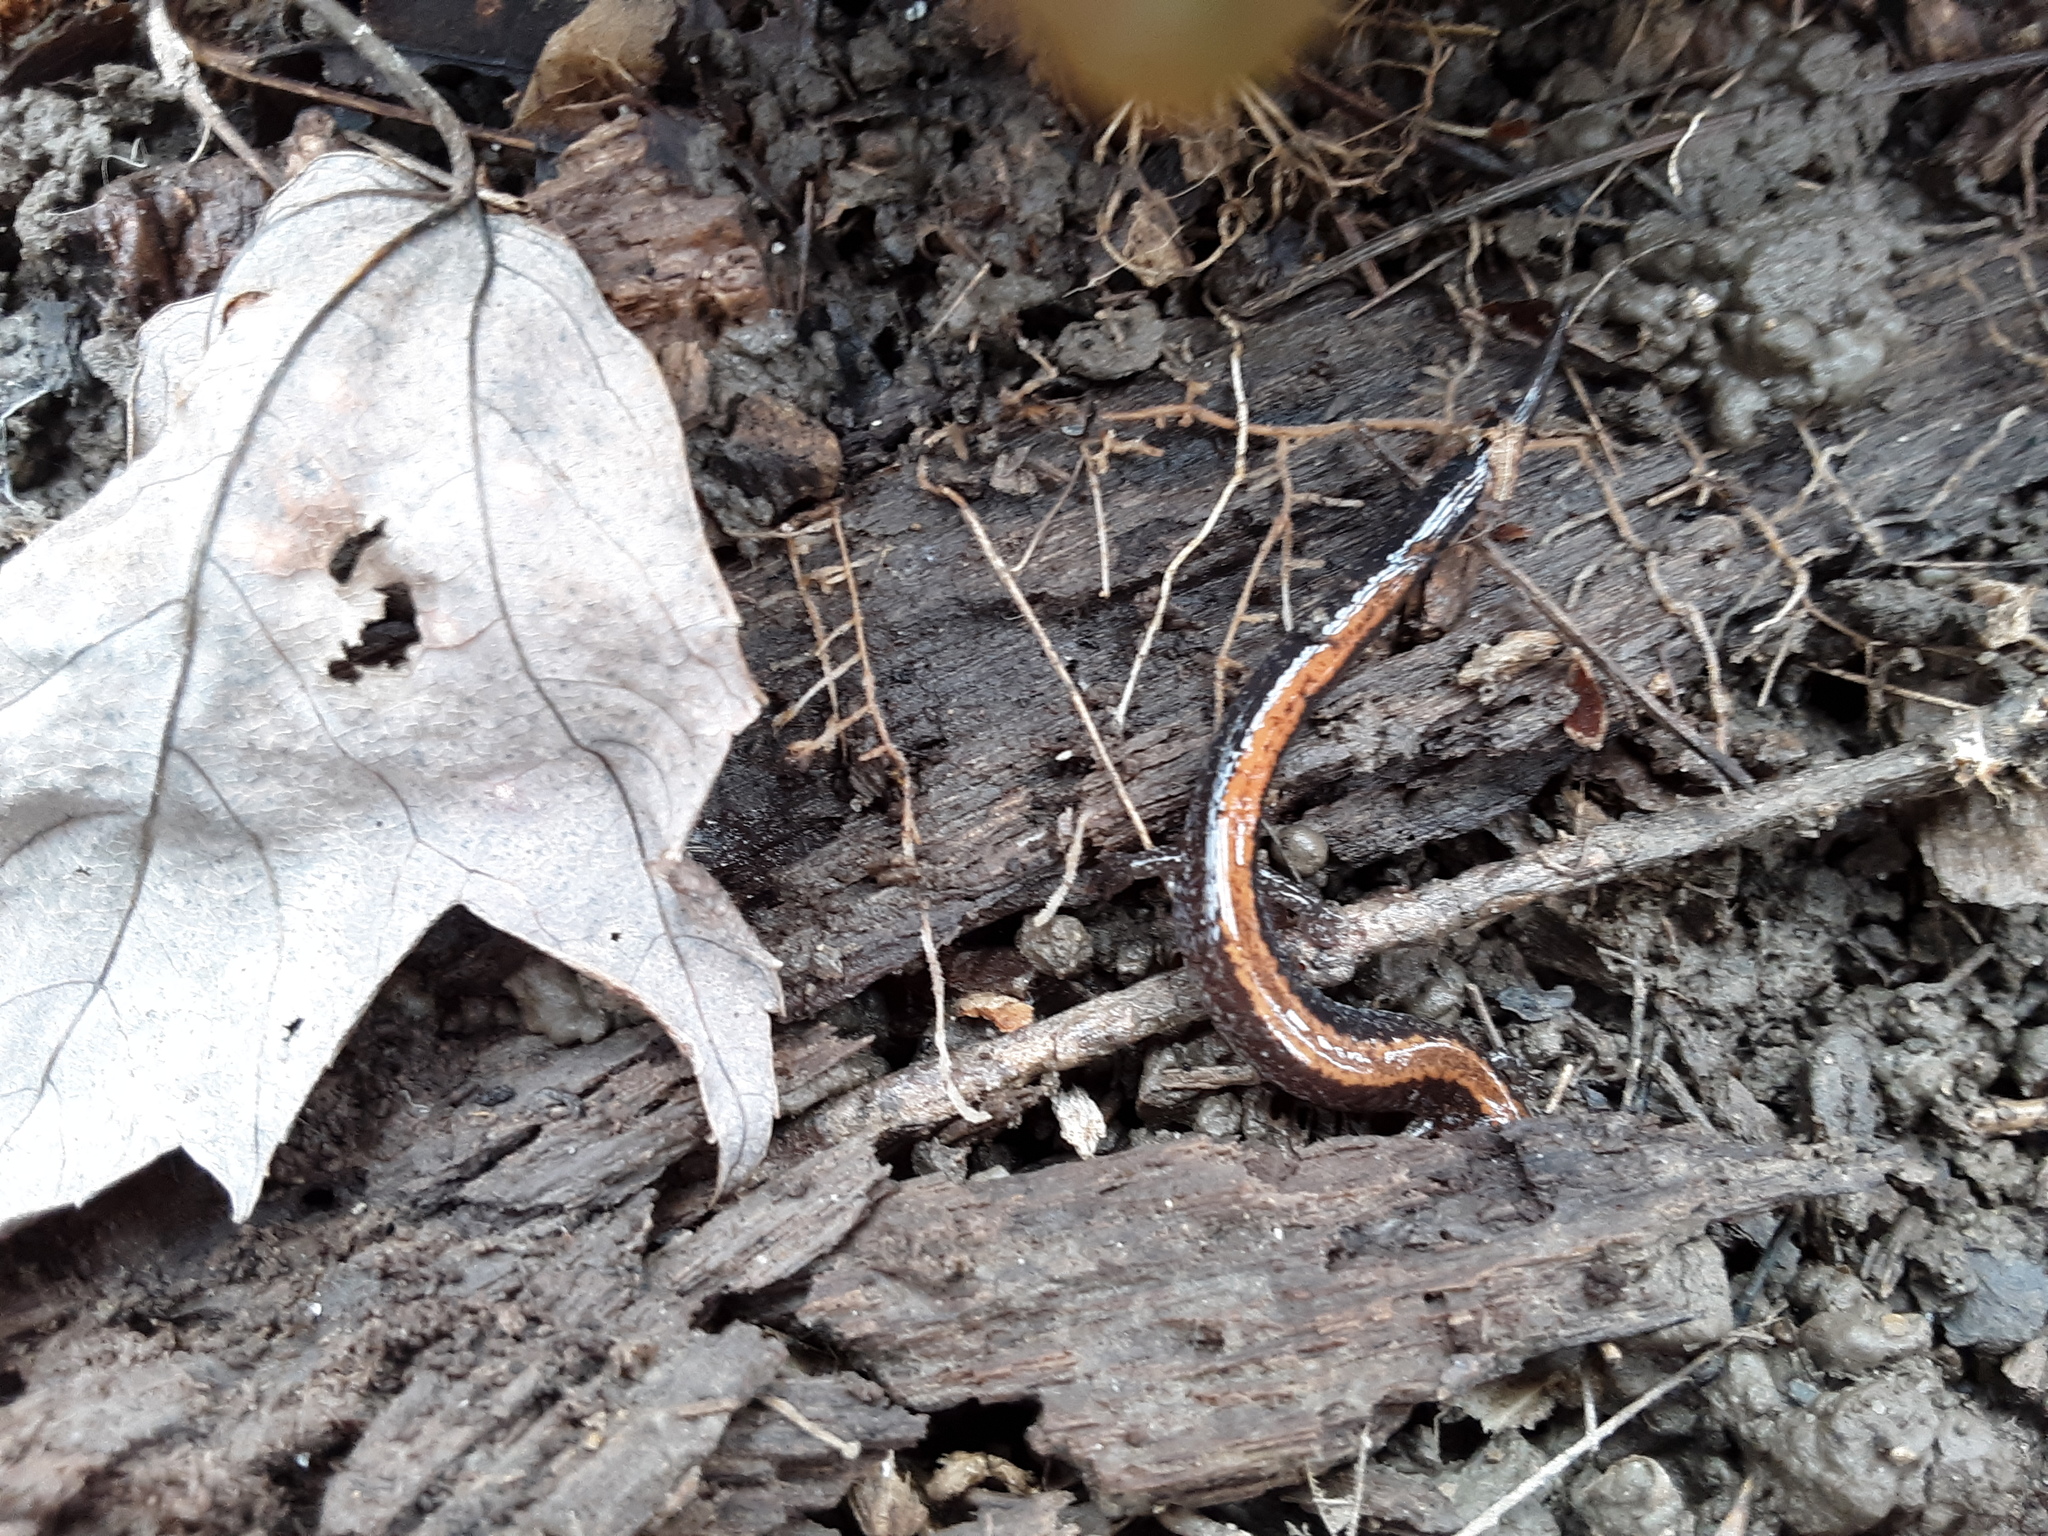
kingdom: Animalia
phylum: Chordata
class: Amphibia
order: Caudata
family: Plethodontidae
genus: Plethodon
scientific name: Plethodon cinereus
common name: Redback salamander
